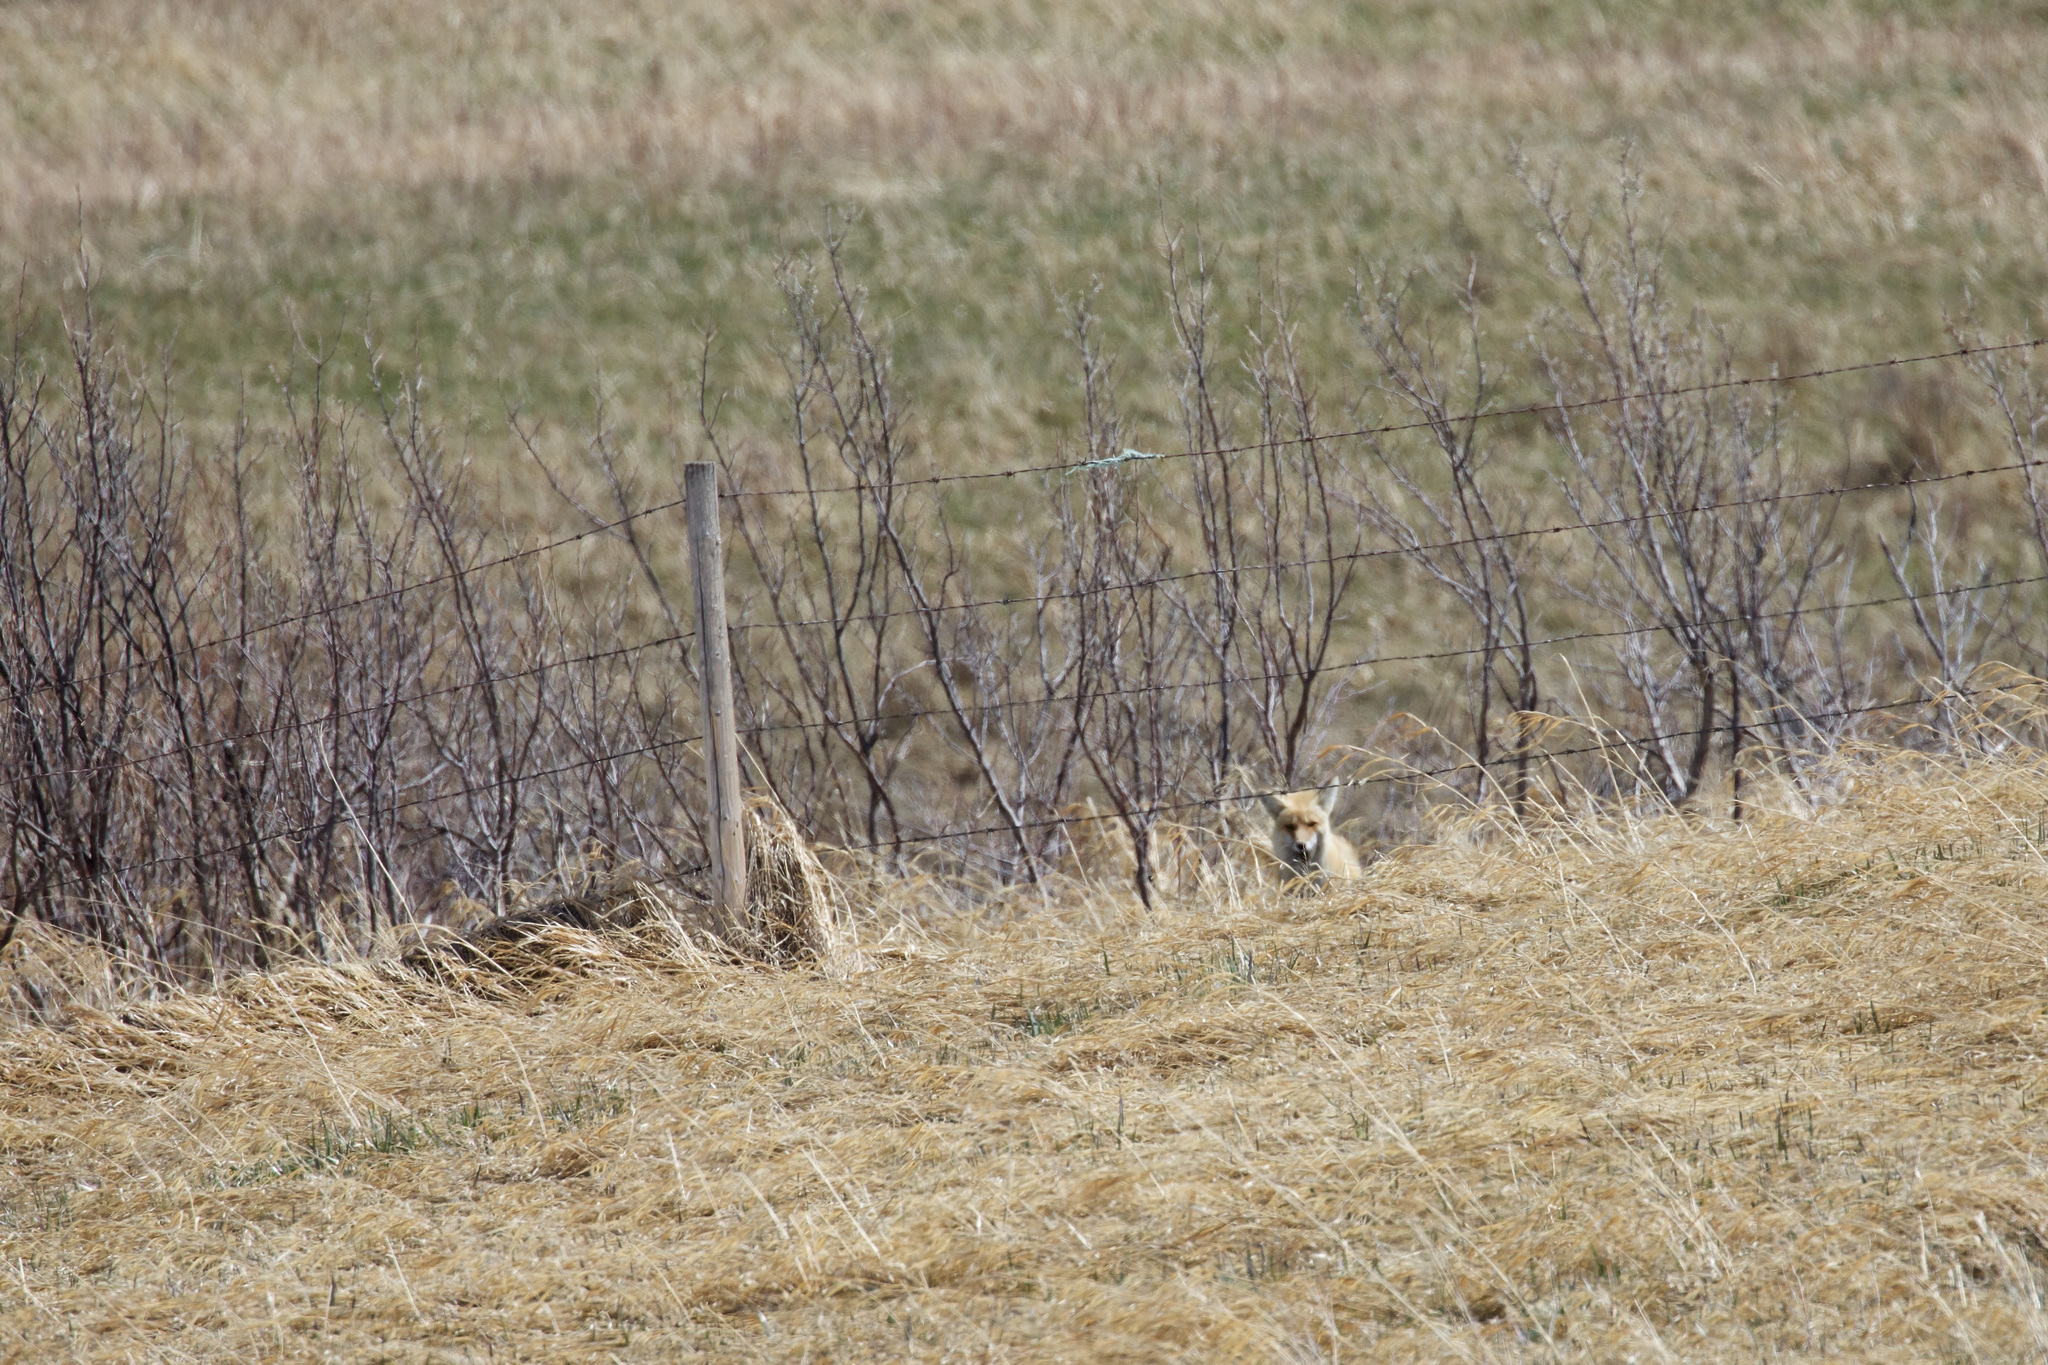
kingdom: Animalia
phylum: Chordata
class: Mammalia
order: Carnivora
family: Canidae
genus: Vulpes
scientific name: Vulpes vulpes
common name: Red fox
